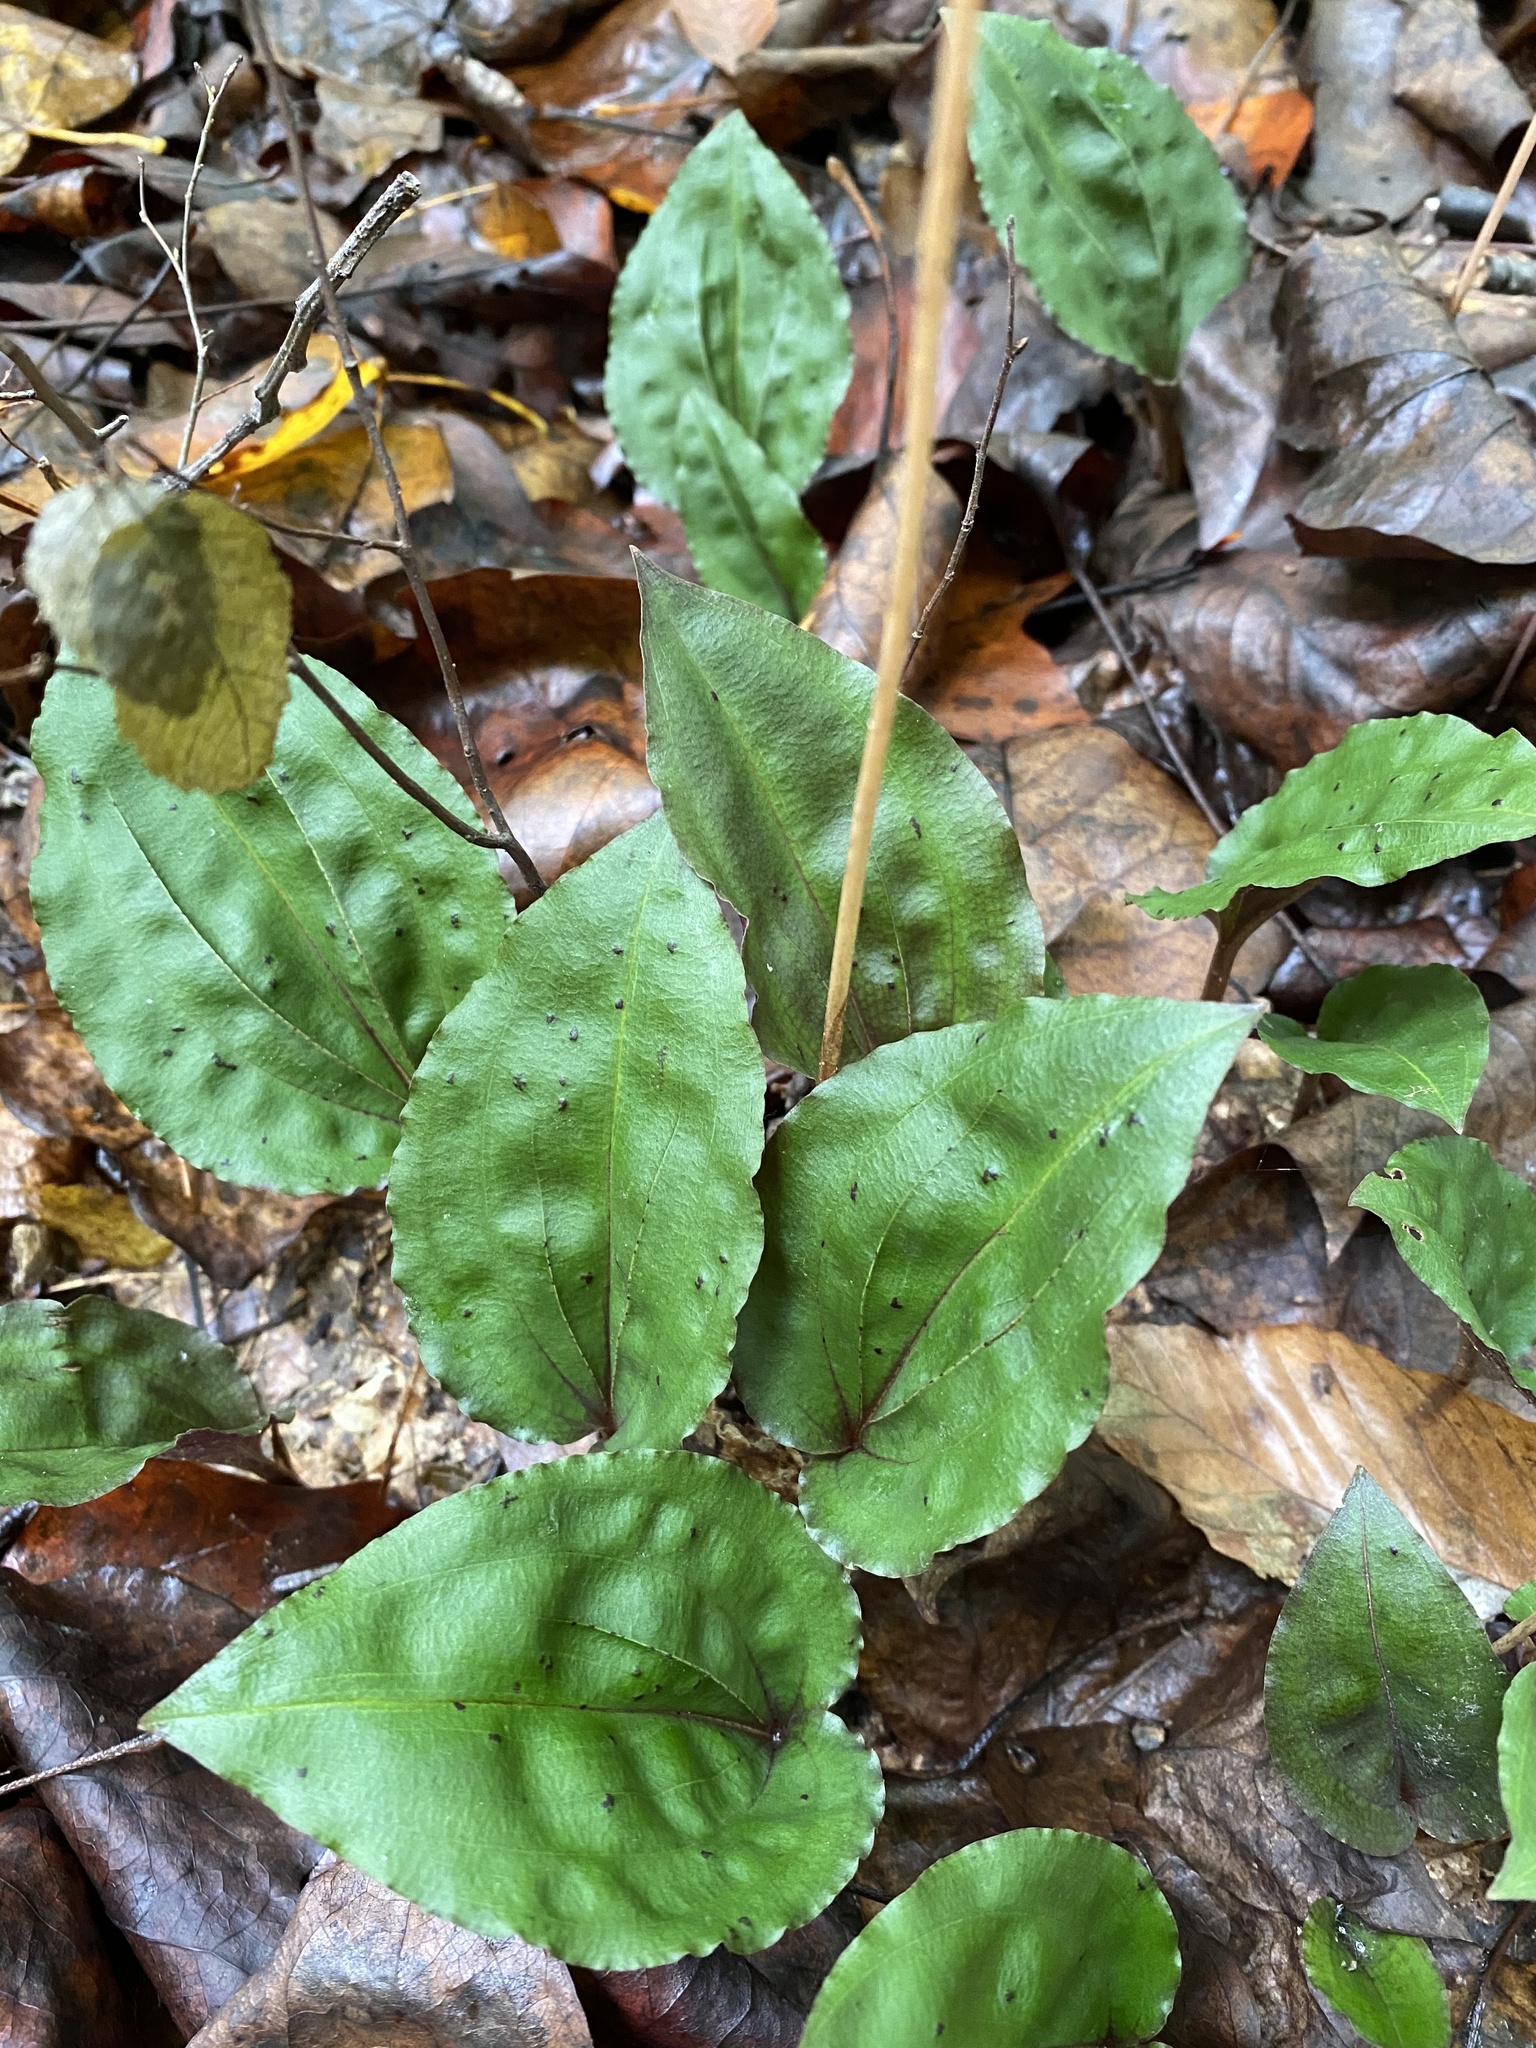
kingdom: Plantae
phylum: Tracheophyta
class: Liliopsida
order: Asparagales
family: Orchidaceae
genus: Tipularia
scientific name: Tipularia discolor
